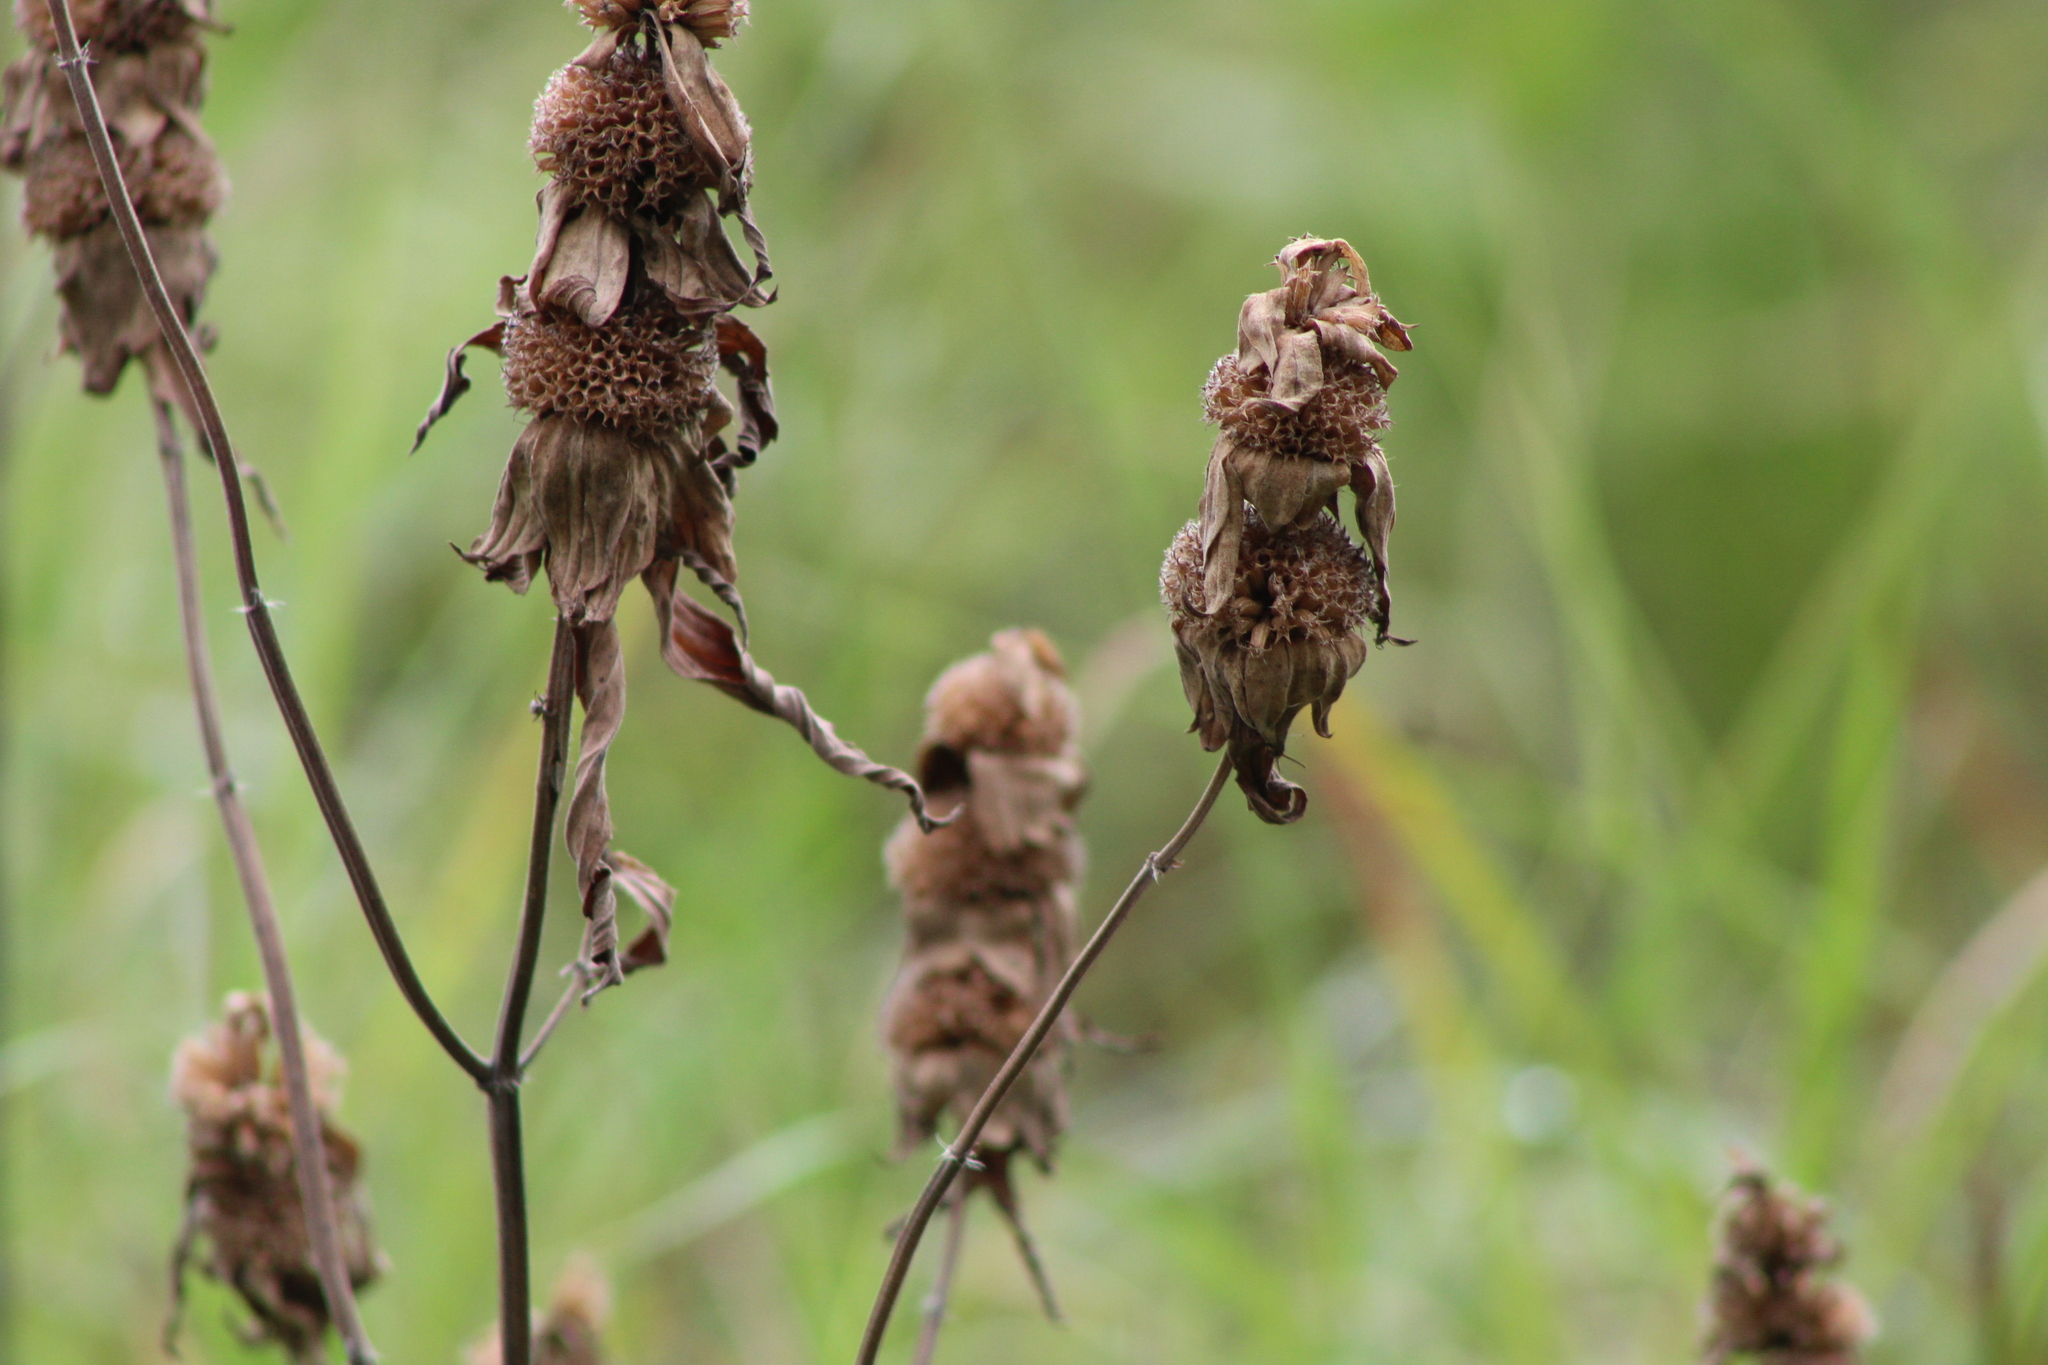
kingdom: Plantae
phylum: Tracheophyta
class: Magnoliopsida
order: Lamiales
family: Lamiaceae
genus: Monarda
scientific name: Monarda punctata
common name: Dotted monarda
